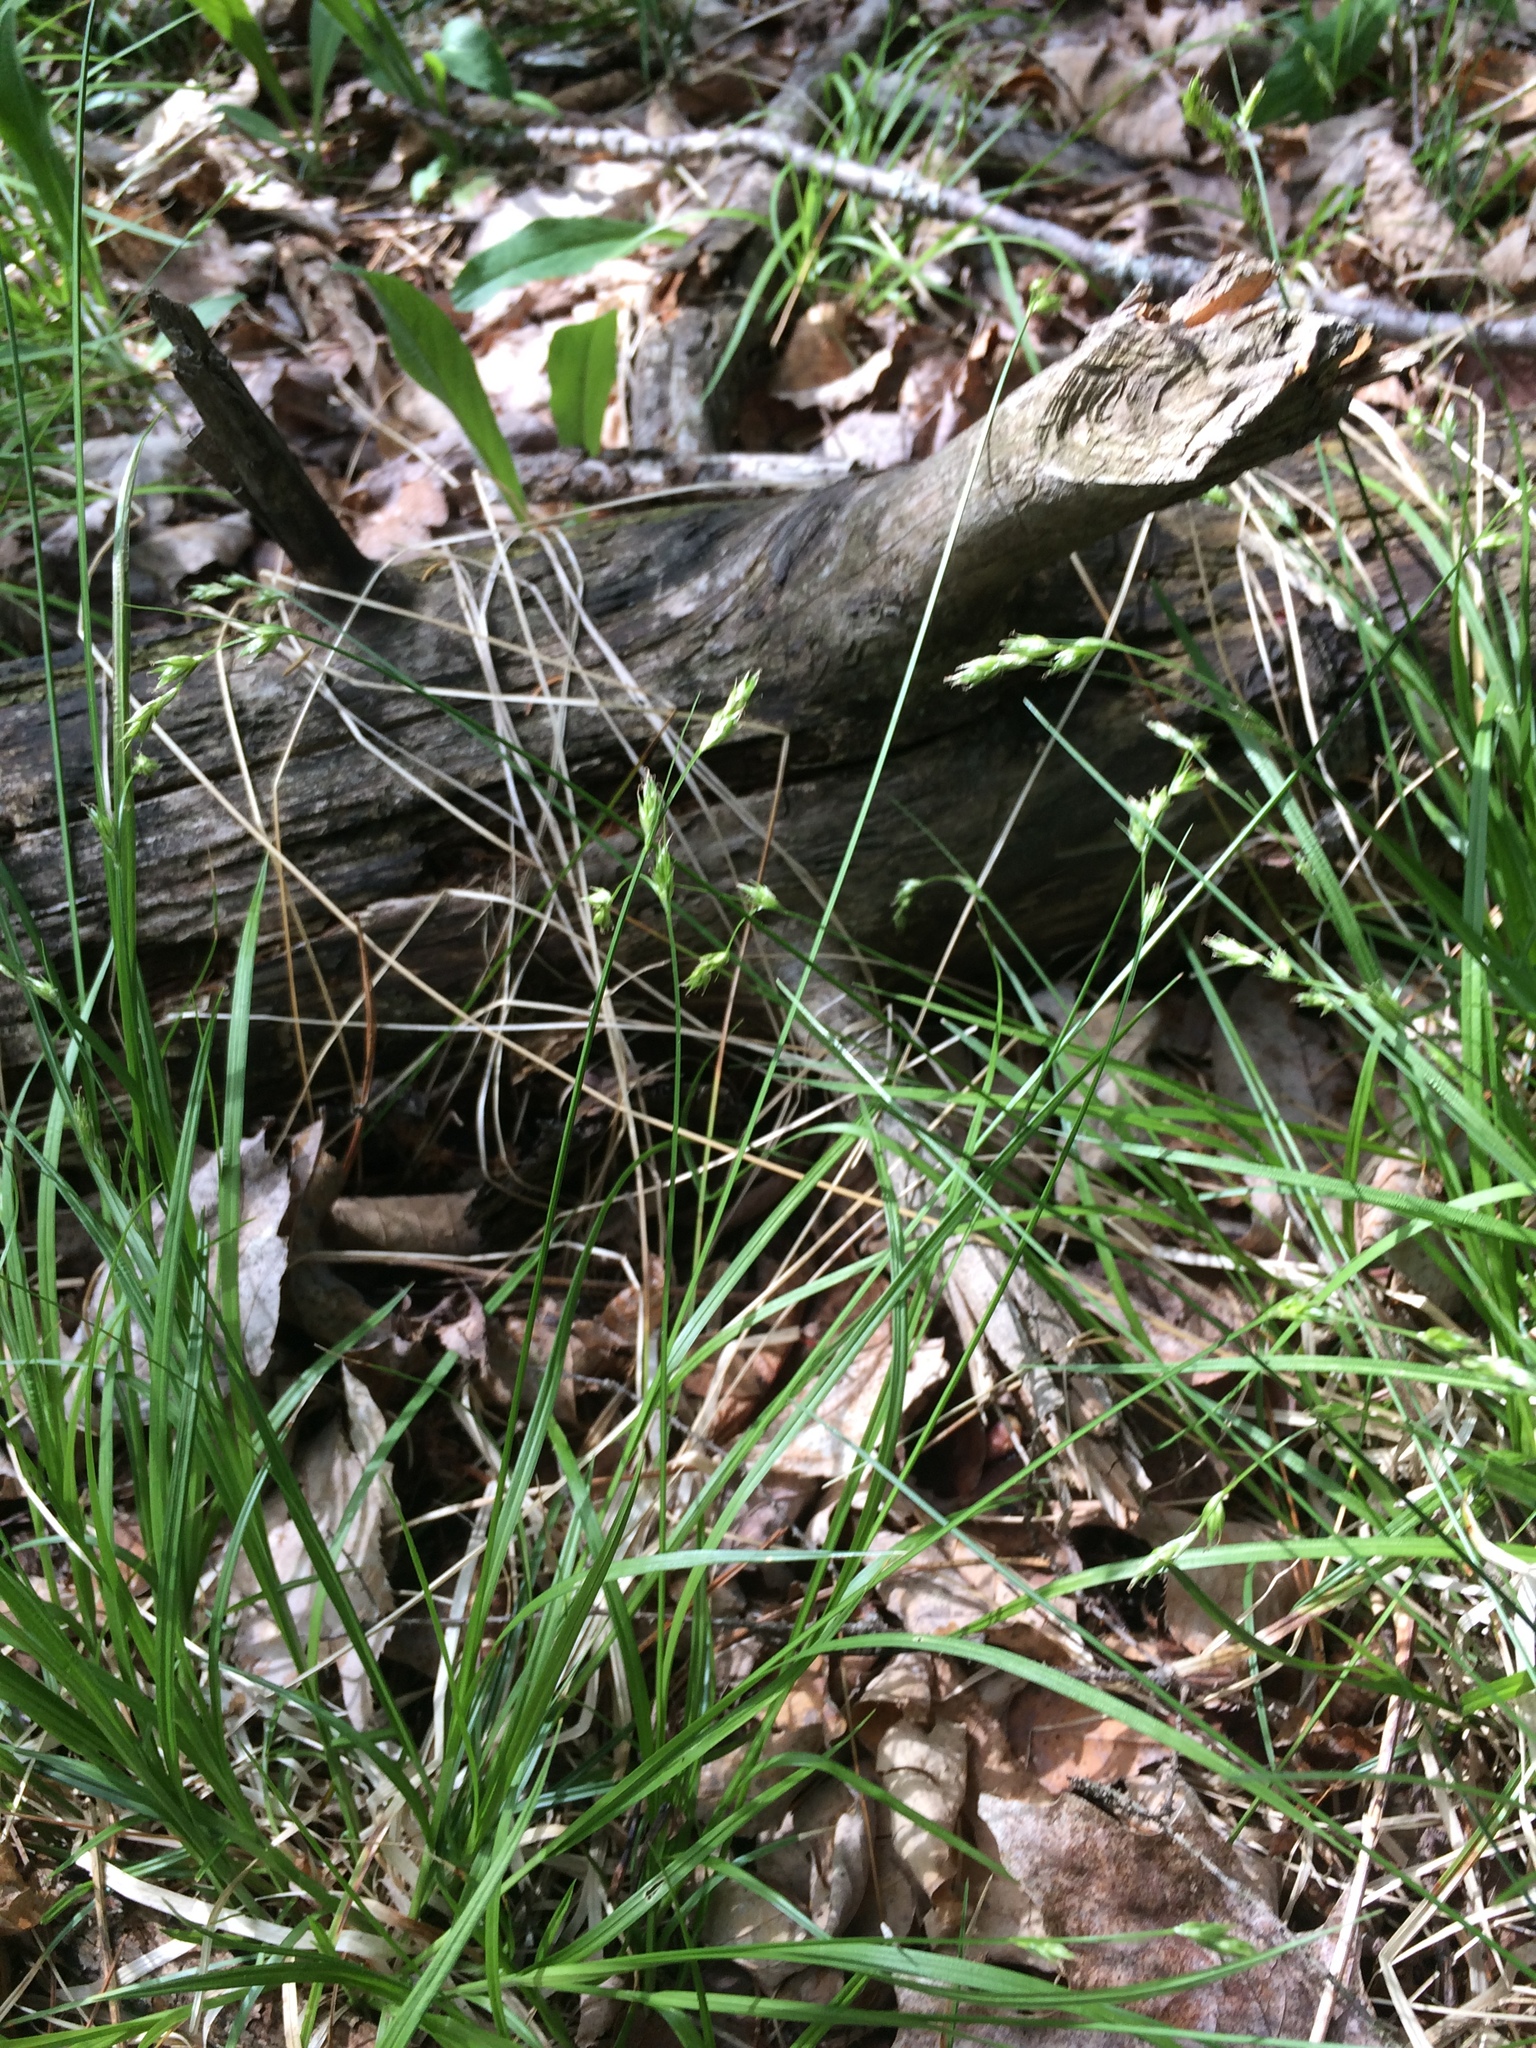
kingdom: Plantae
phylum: Tracheophyta
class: Liliopsida
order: Poales
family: Cyperaceae
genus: Carex
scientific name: Carex deweyana
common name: Dewey's sedge
